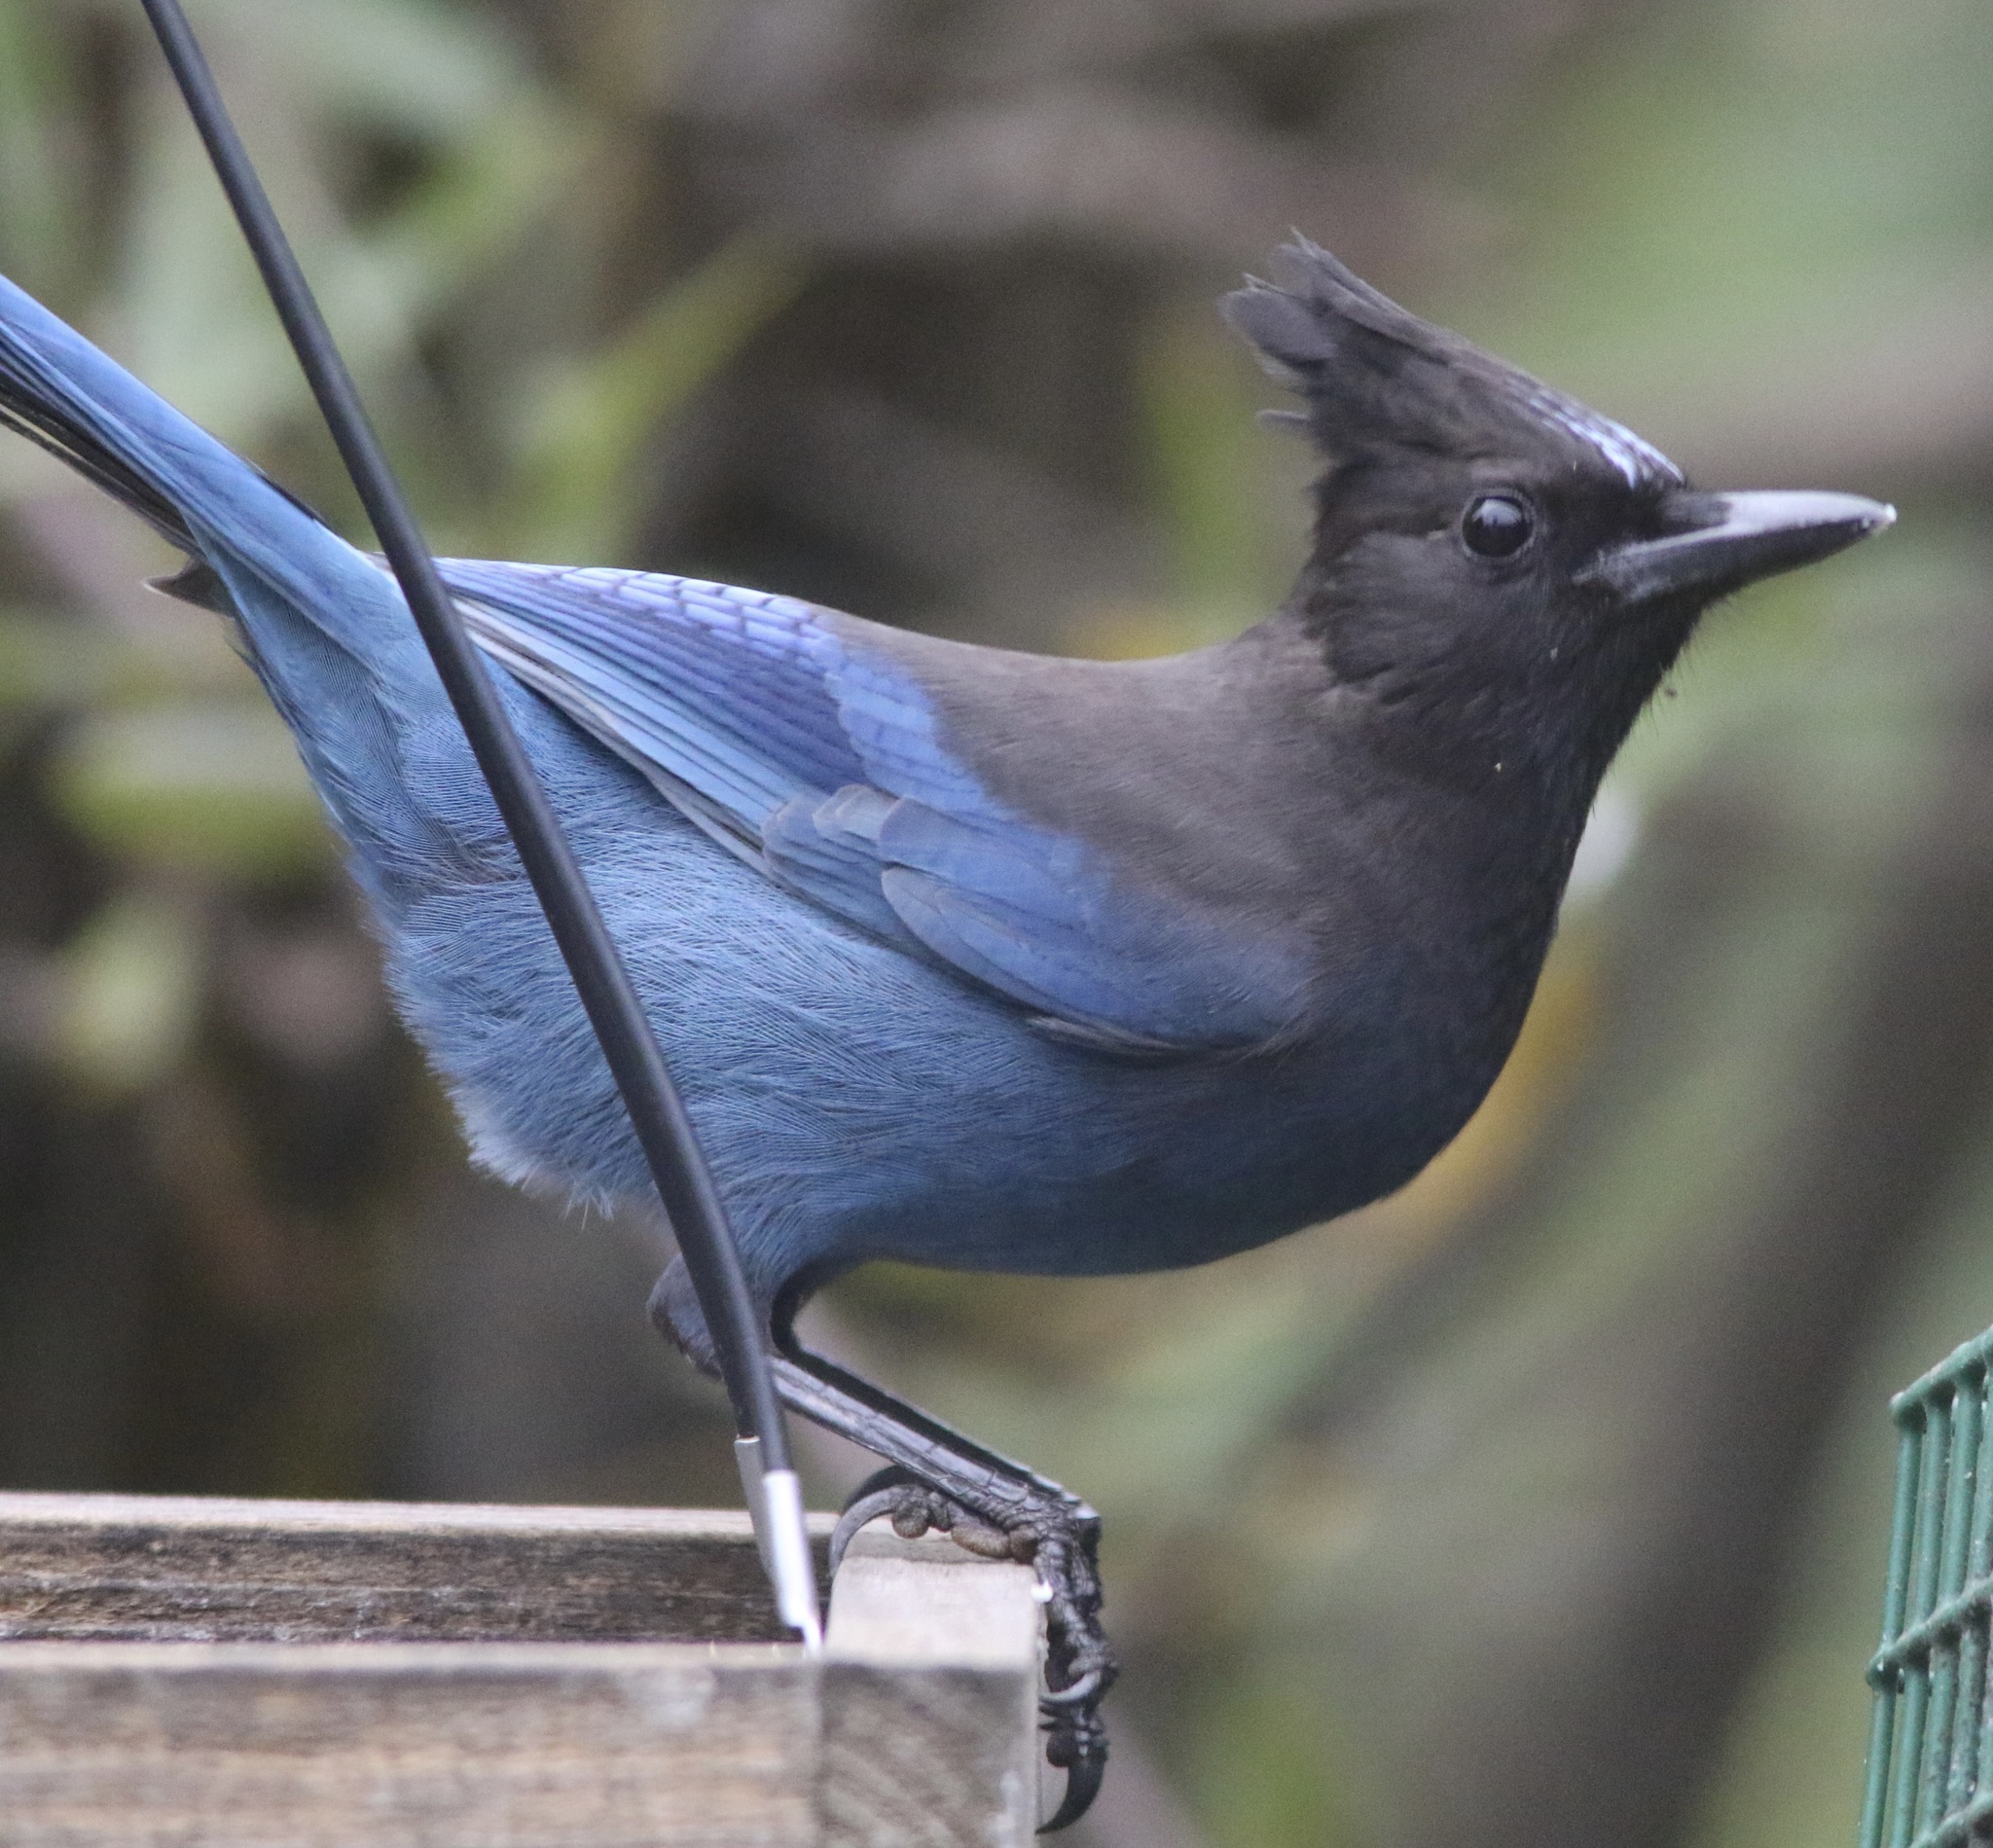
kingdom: Animalia
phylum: Chordata
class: Aves
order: Passeriformes
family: Corvidae
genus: Cyanocitta
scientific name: Cyanocitta stelleri
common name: Steller's jay
